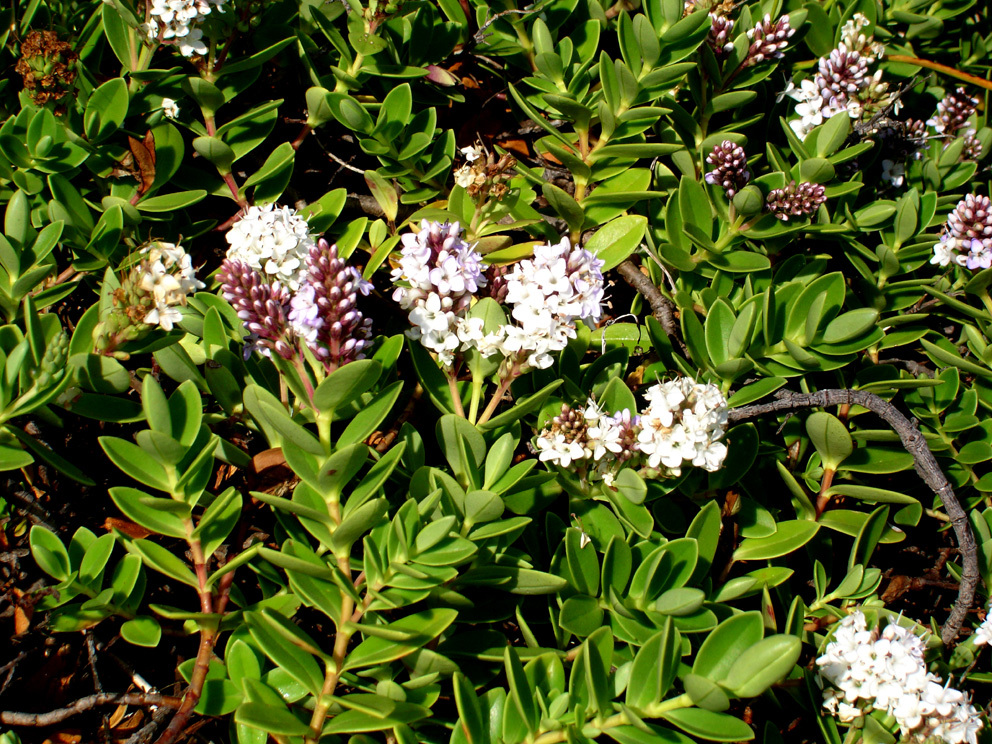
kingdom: Plantae
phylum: Tracheophyta
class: Magnoliopsida
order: Lamiales
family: Plantaginaceae
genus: Veronica
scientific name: Veronica chathamica
